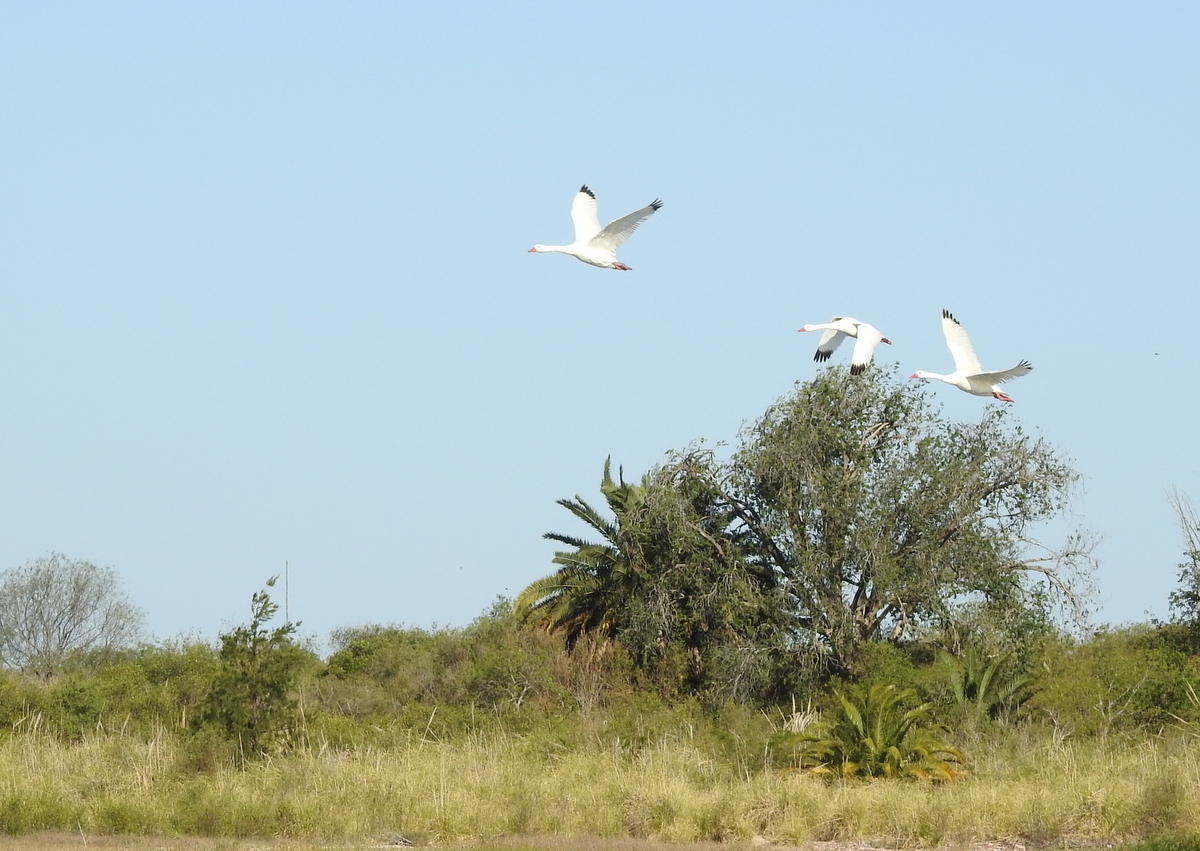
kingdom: Animalia
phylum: Chordata
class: Aves
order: Anseriformes
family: Anatidae
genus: Coscoroba
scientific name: Coscoroba coscoroba
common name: Coscoroba swan
